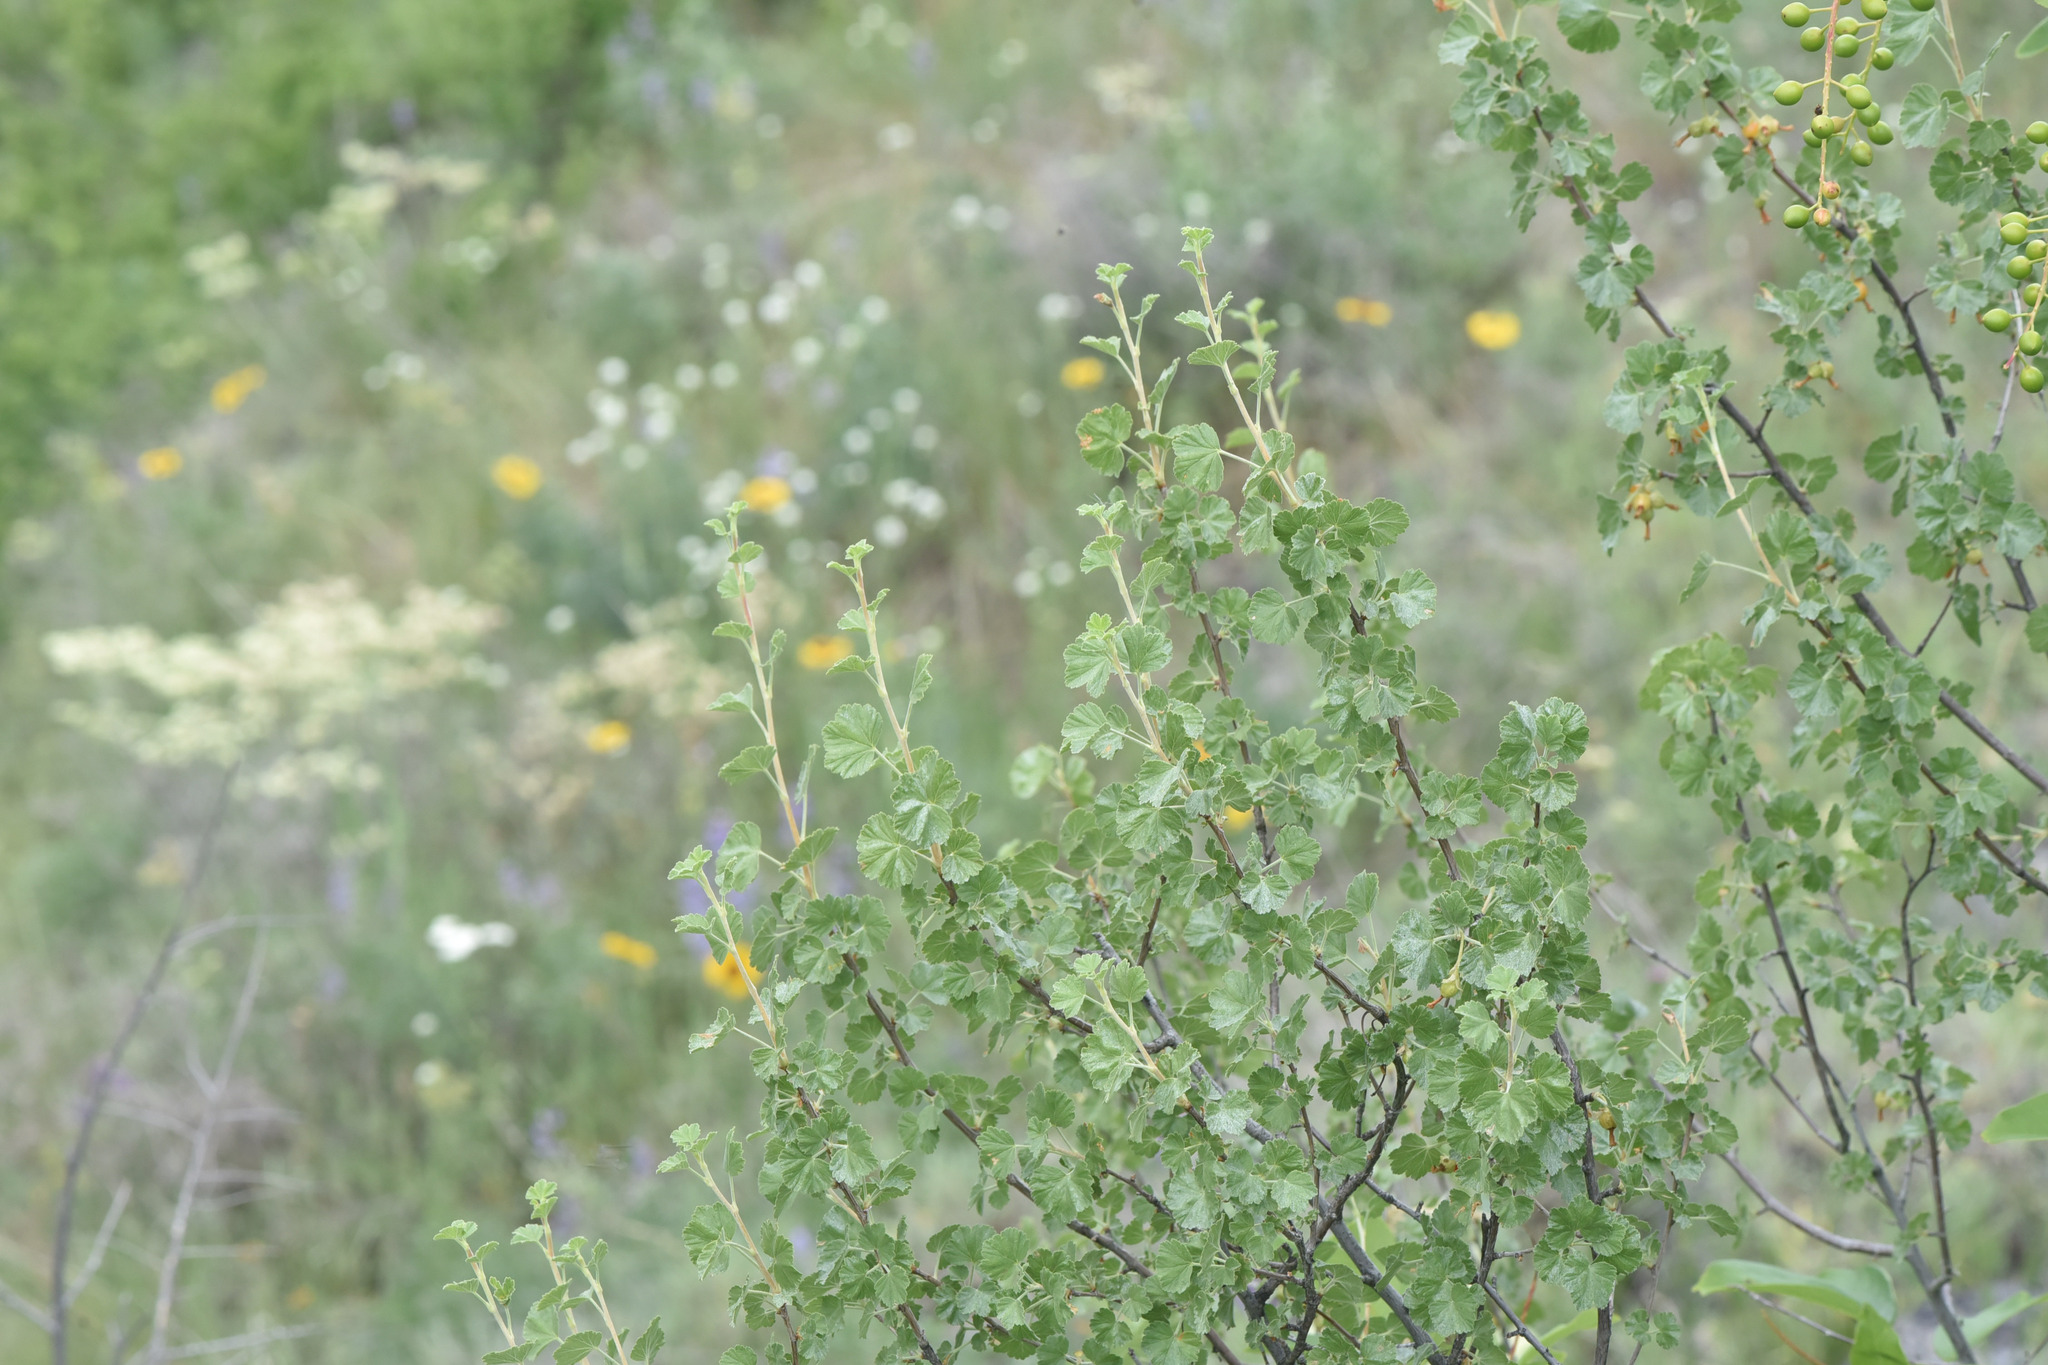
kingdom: Plantae
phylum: Tracheophyta
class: Magnoliopsida
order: Saxifragales
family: Grossulariaceae
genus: Ribes
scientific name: Ribes cereum
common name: Wax currant
